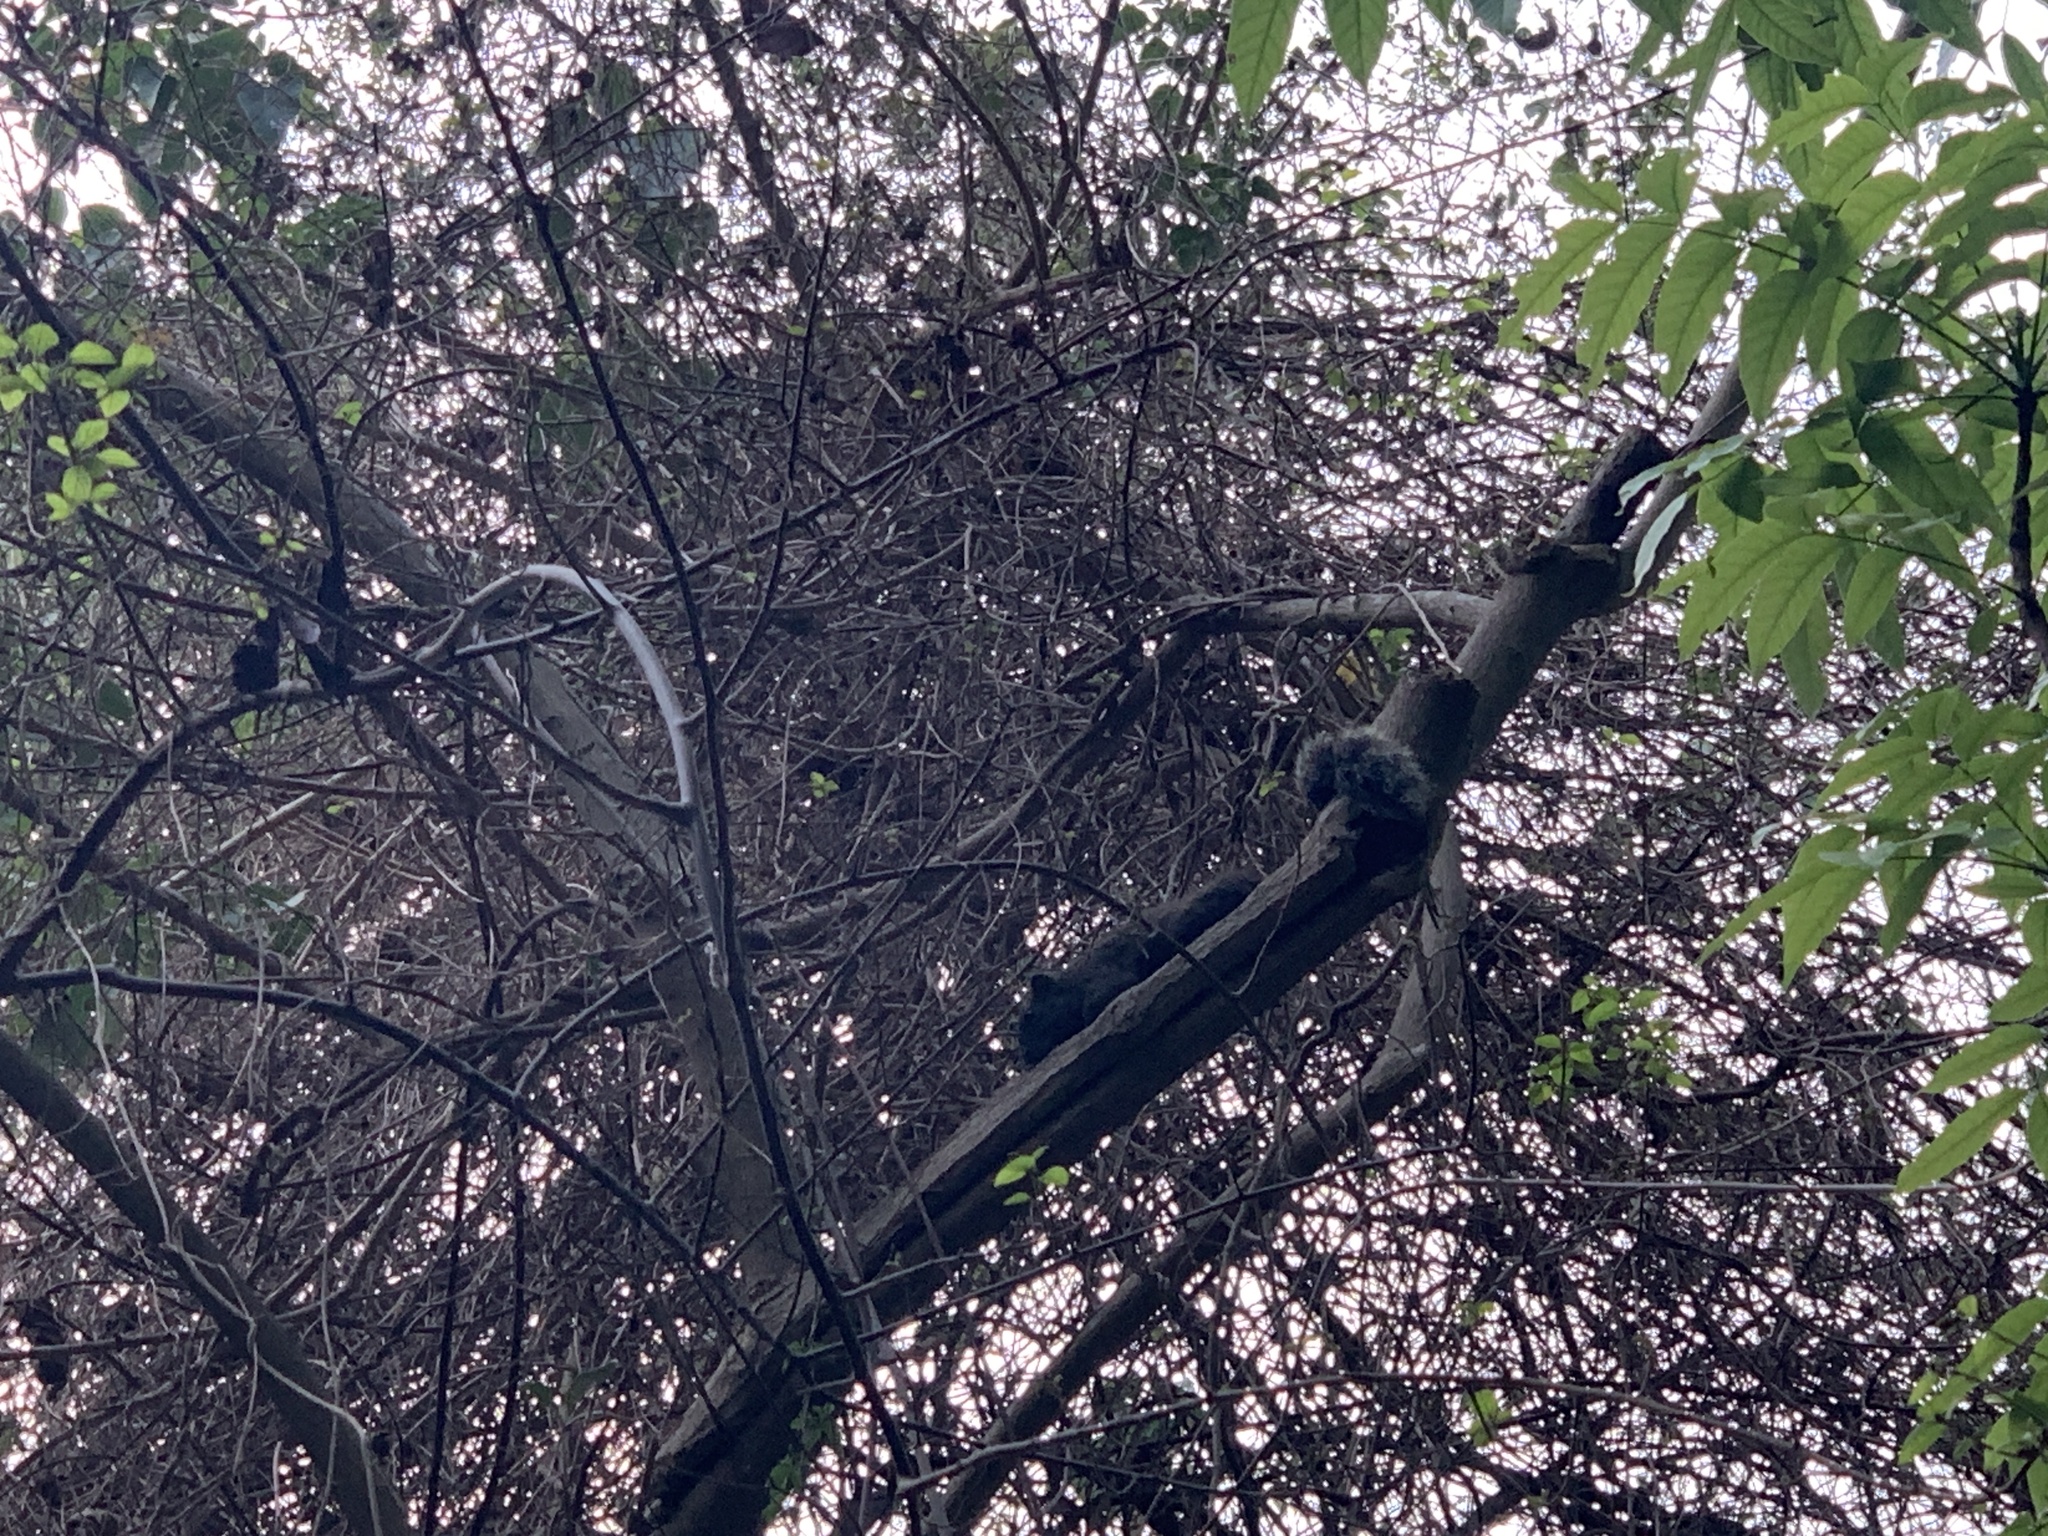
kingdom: Animalia
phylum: Chordata
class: Mammalia
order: Rodentia
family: Sciuridae
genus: Callosciurus
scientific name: Callosciurus erythraeus
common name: Pallas's squirrel
